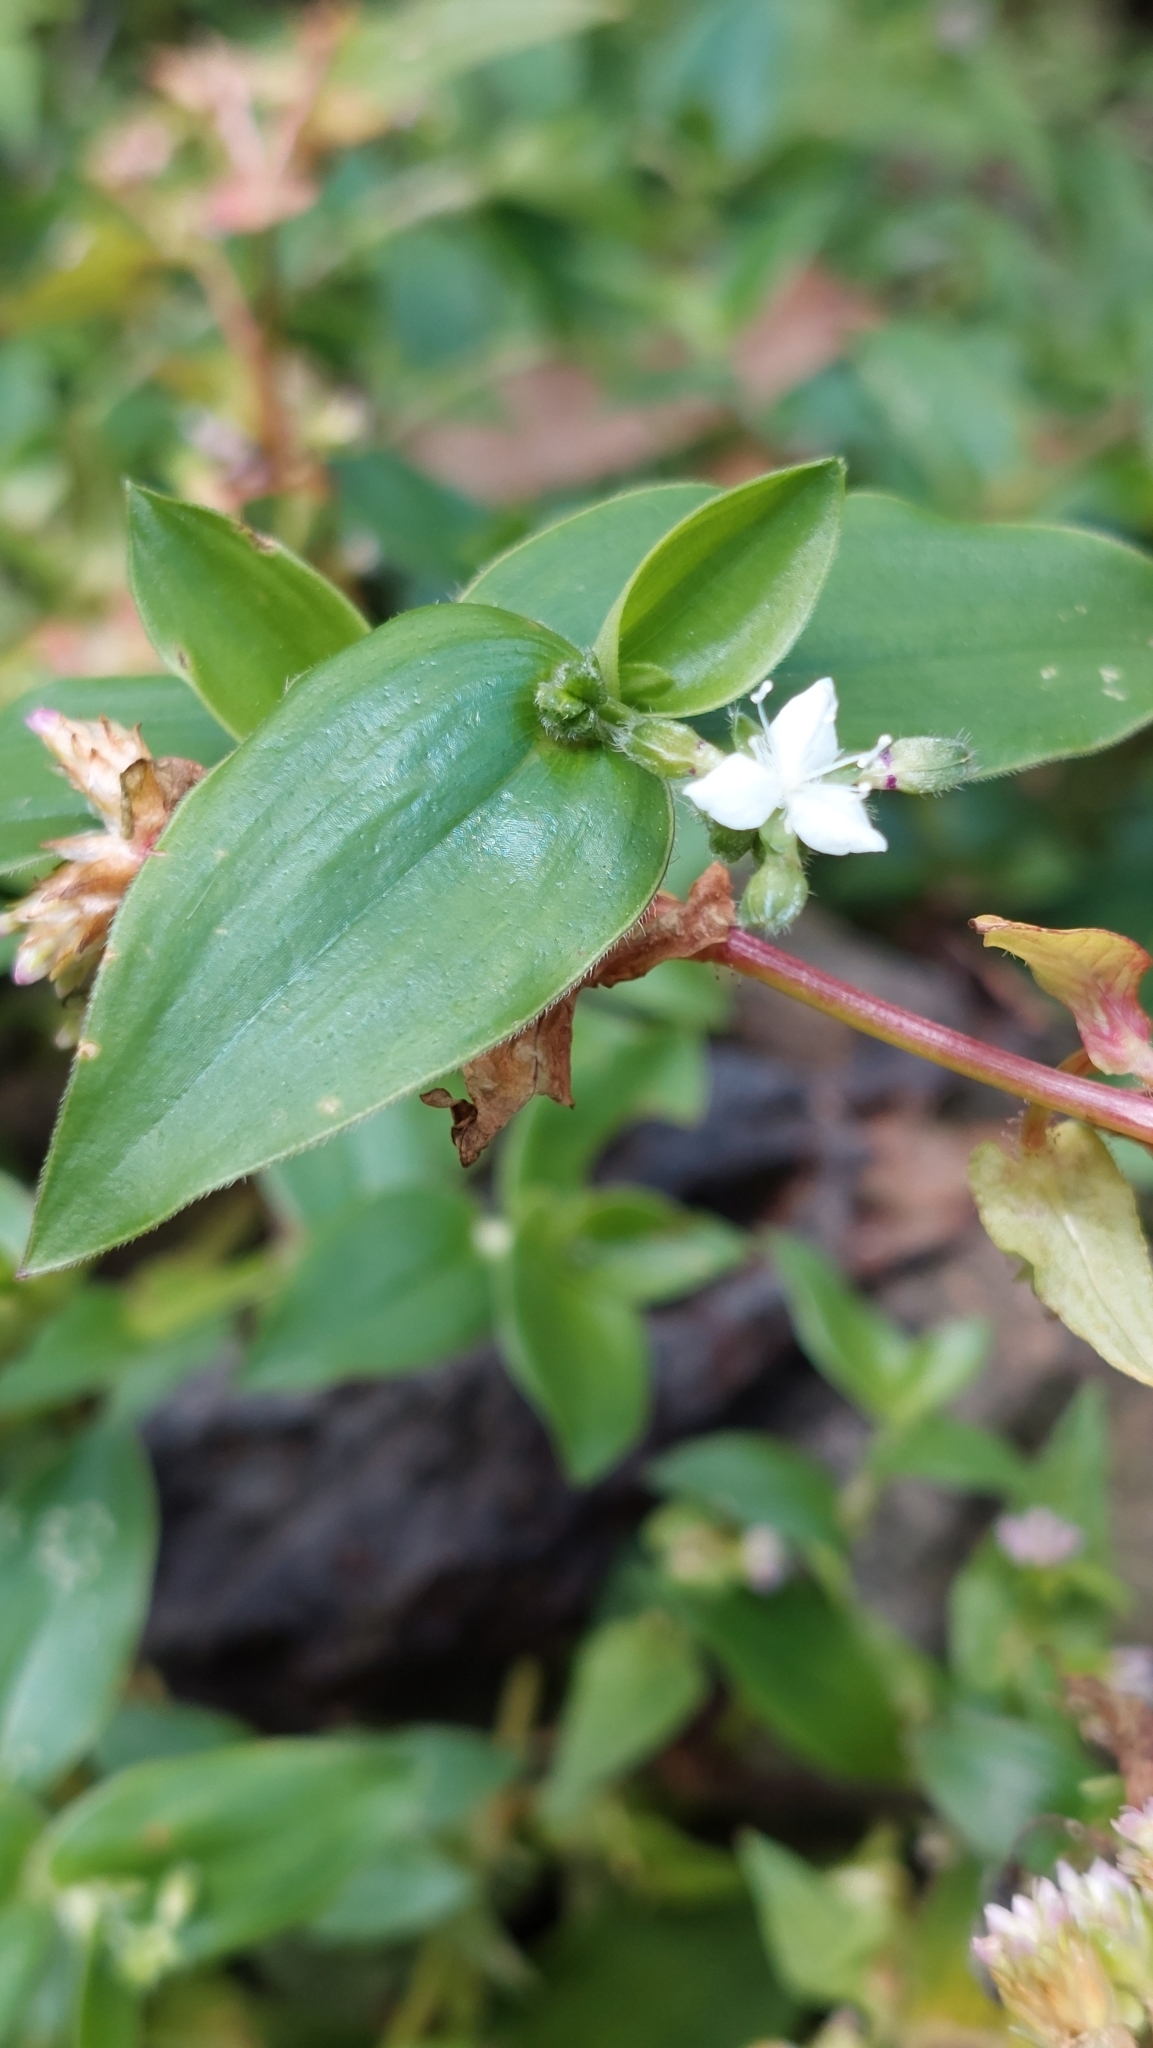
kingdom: Plantae
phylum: Tracheophyta
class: Liliopsida
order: Commelinales
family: Commelinaceae
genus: Tradescantia
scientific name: Tradescantia fluminensis
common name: Wandering-jew
